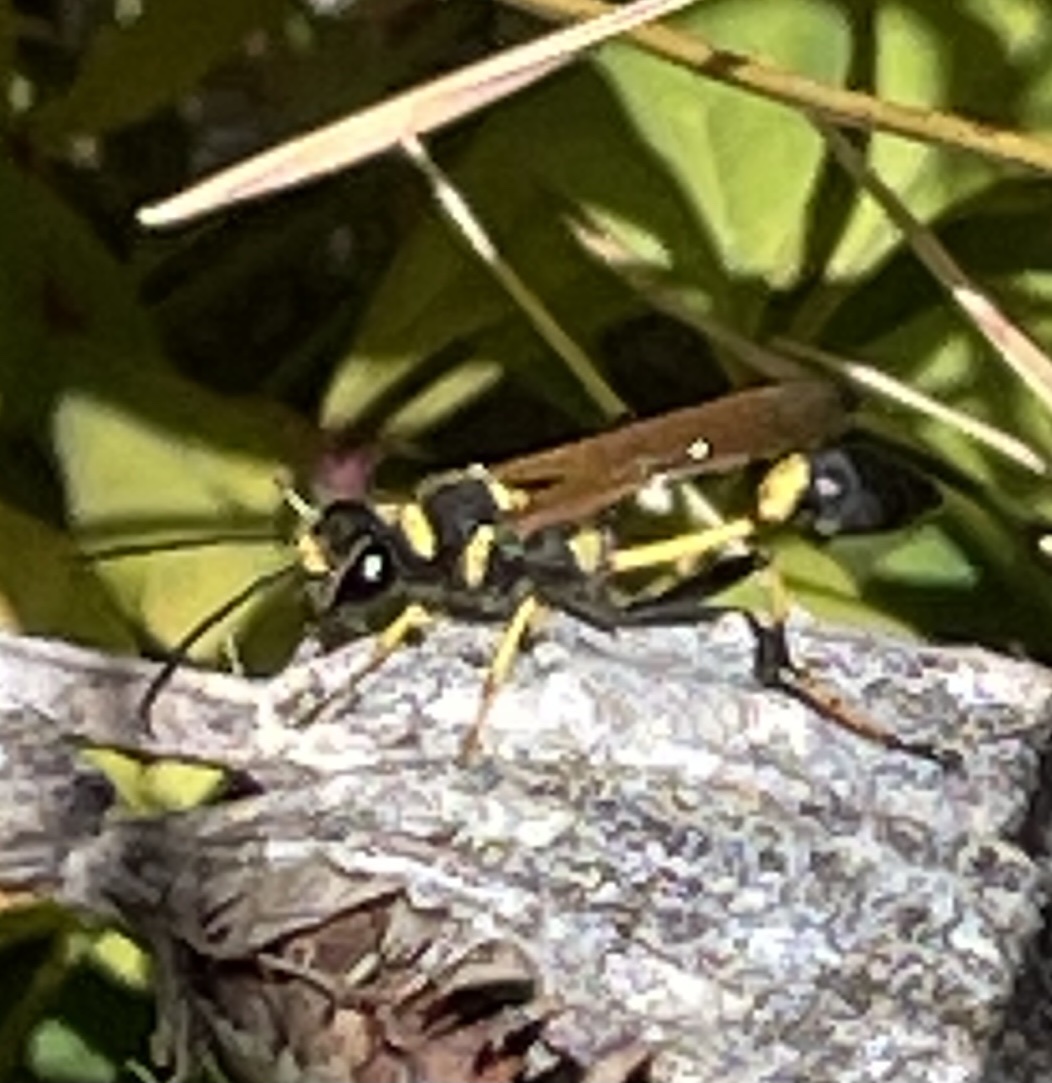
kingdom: Animalia
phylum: Arthropoda
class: Insecta
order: Hymenoptera
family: Sphecidae
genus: Sceliphron
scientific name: Sceliphron caementarium
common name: Mud dauber
